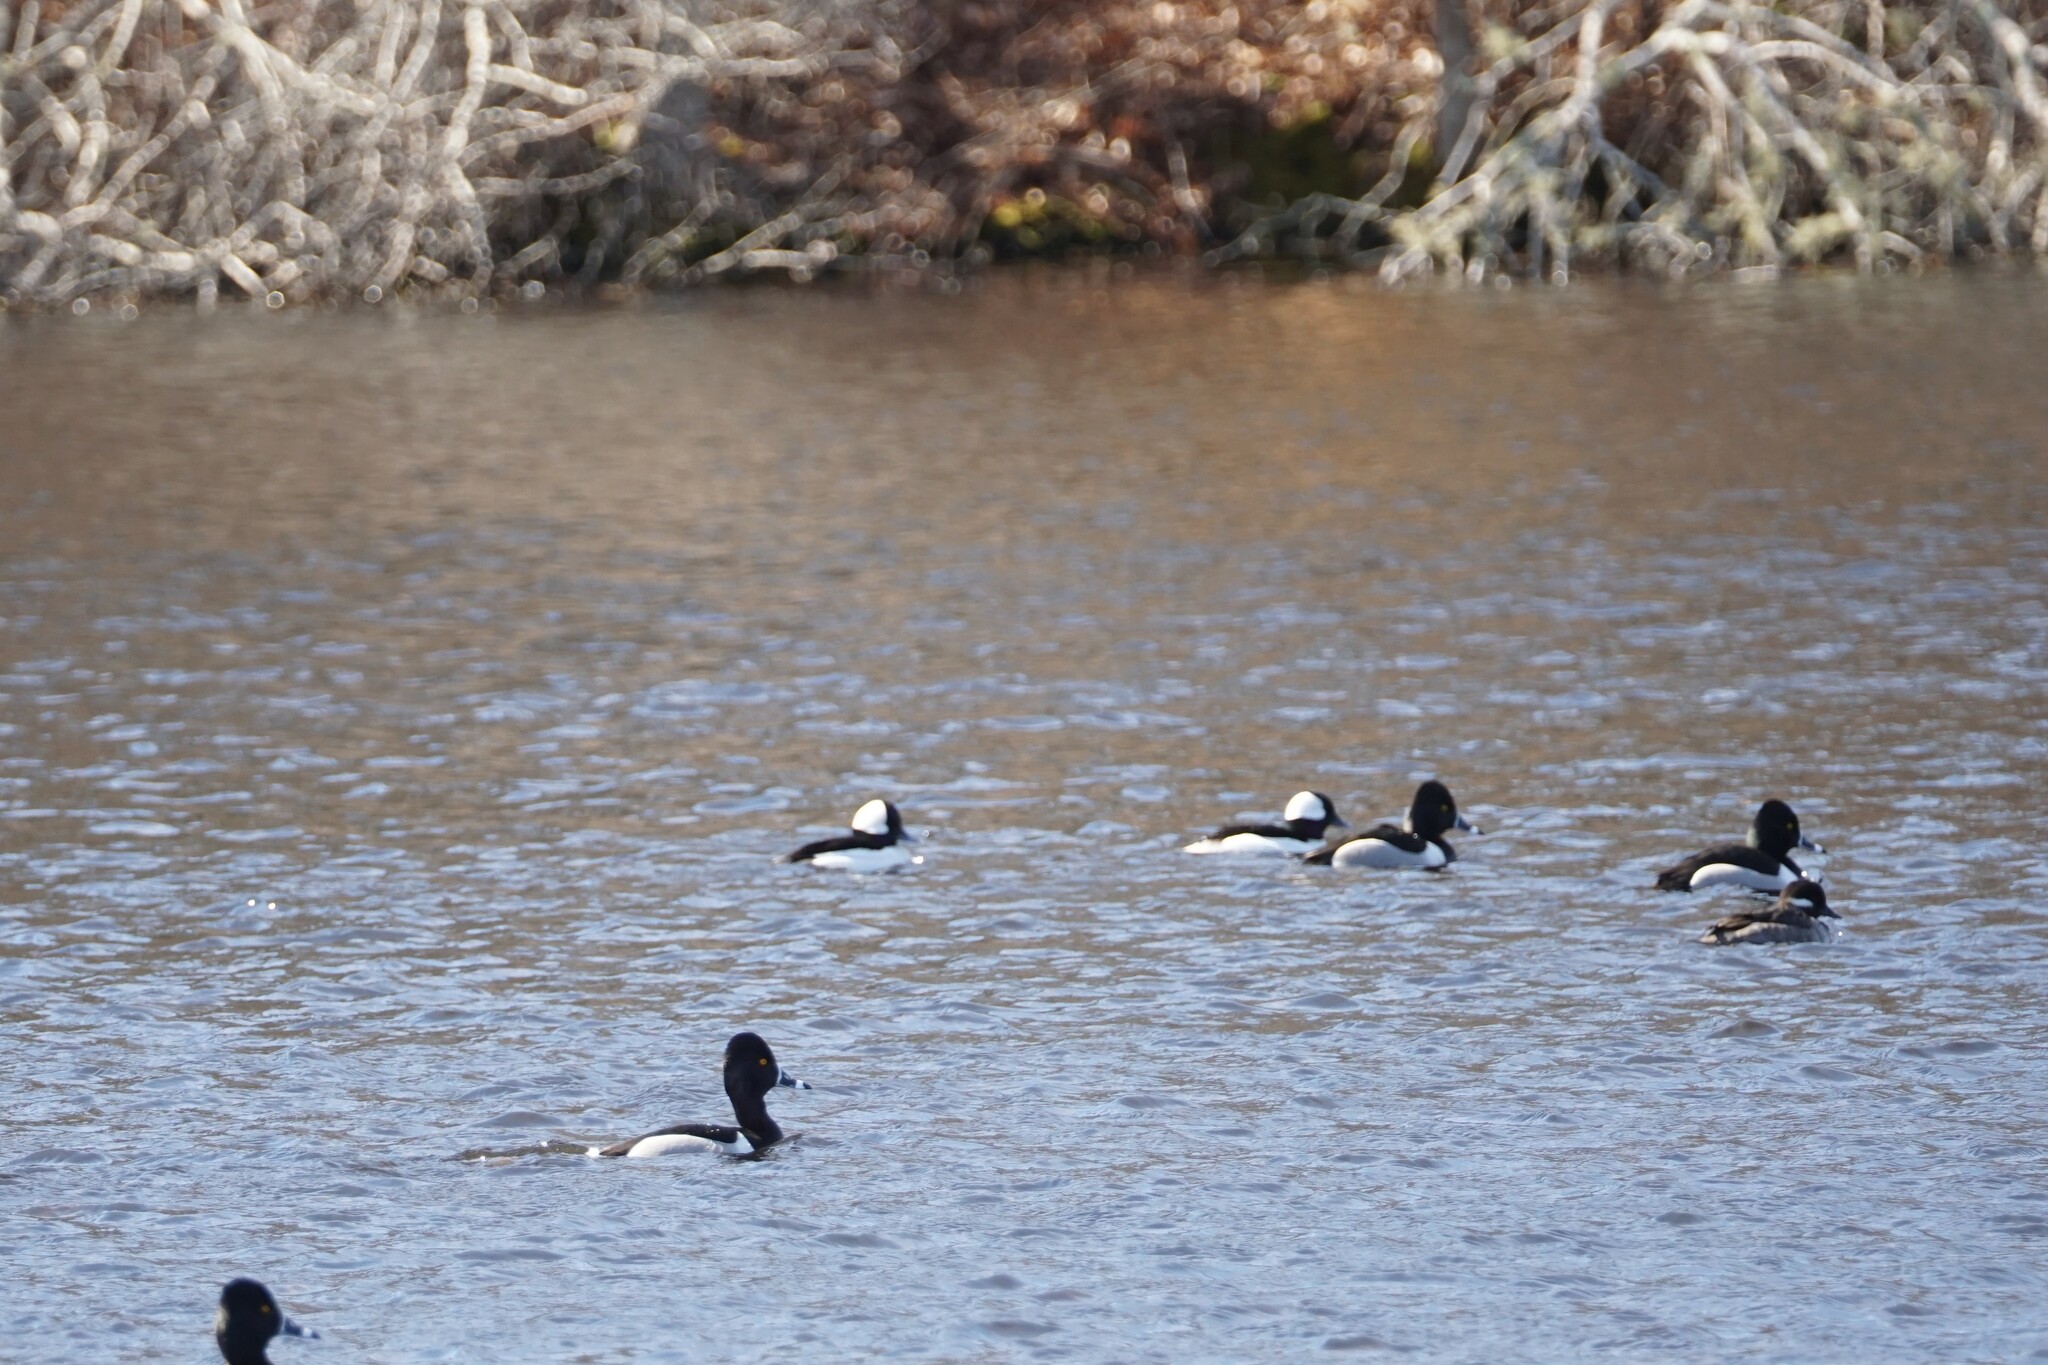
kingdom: Animalia
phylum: Chordata
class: Aves
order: Anseriformes
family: Anatidae
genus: Bucephala
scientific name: Bucephala albeola
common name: Bufflehead
